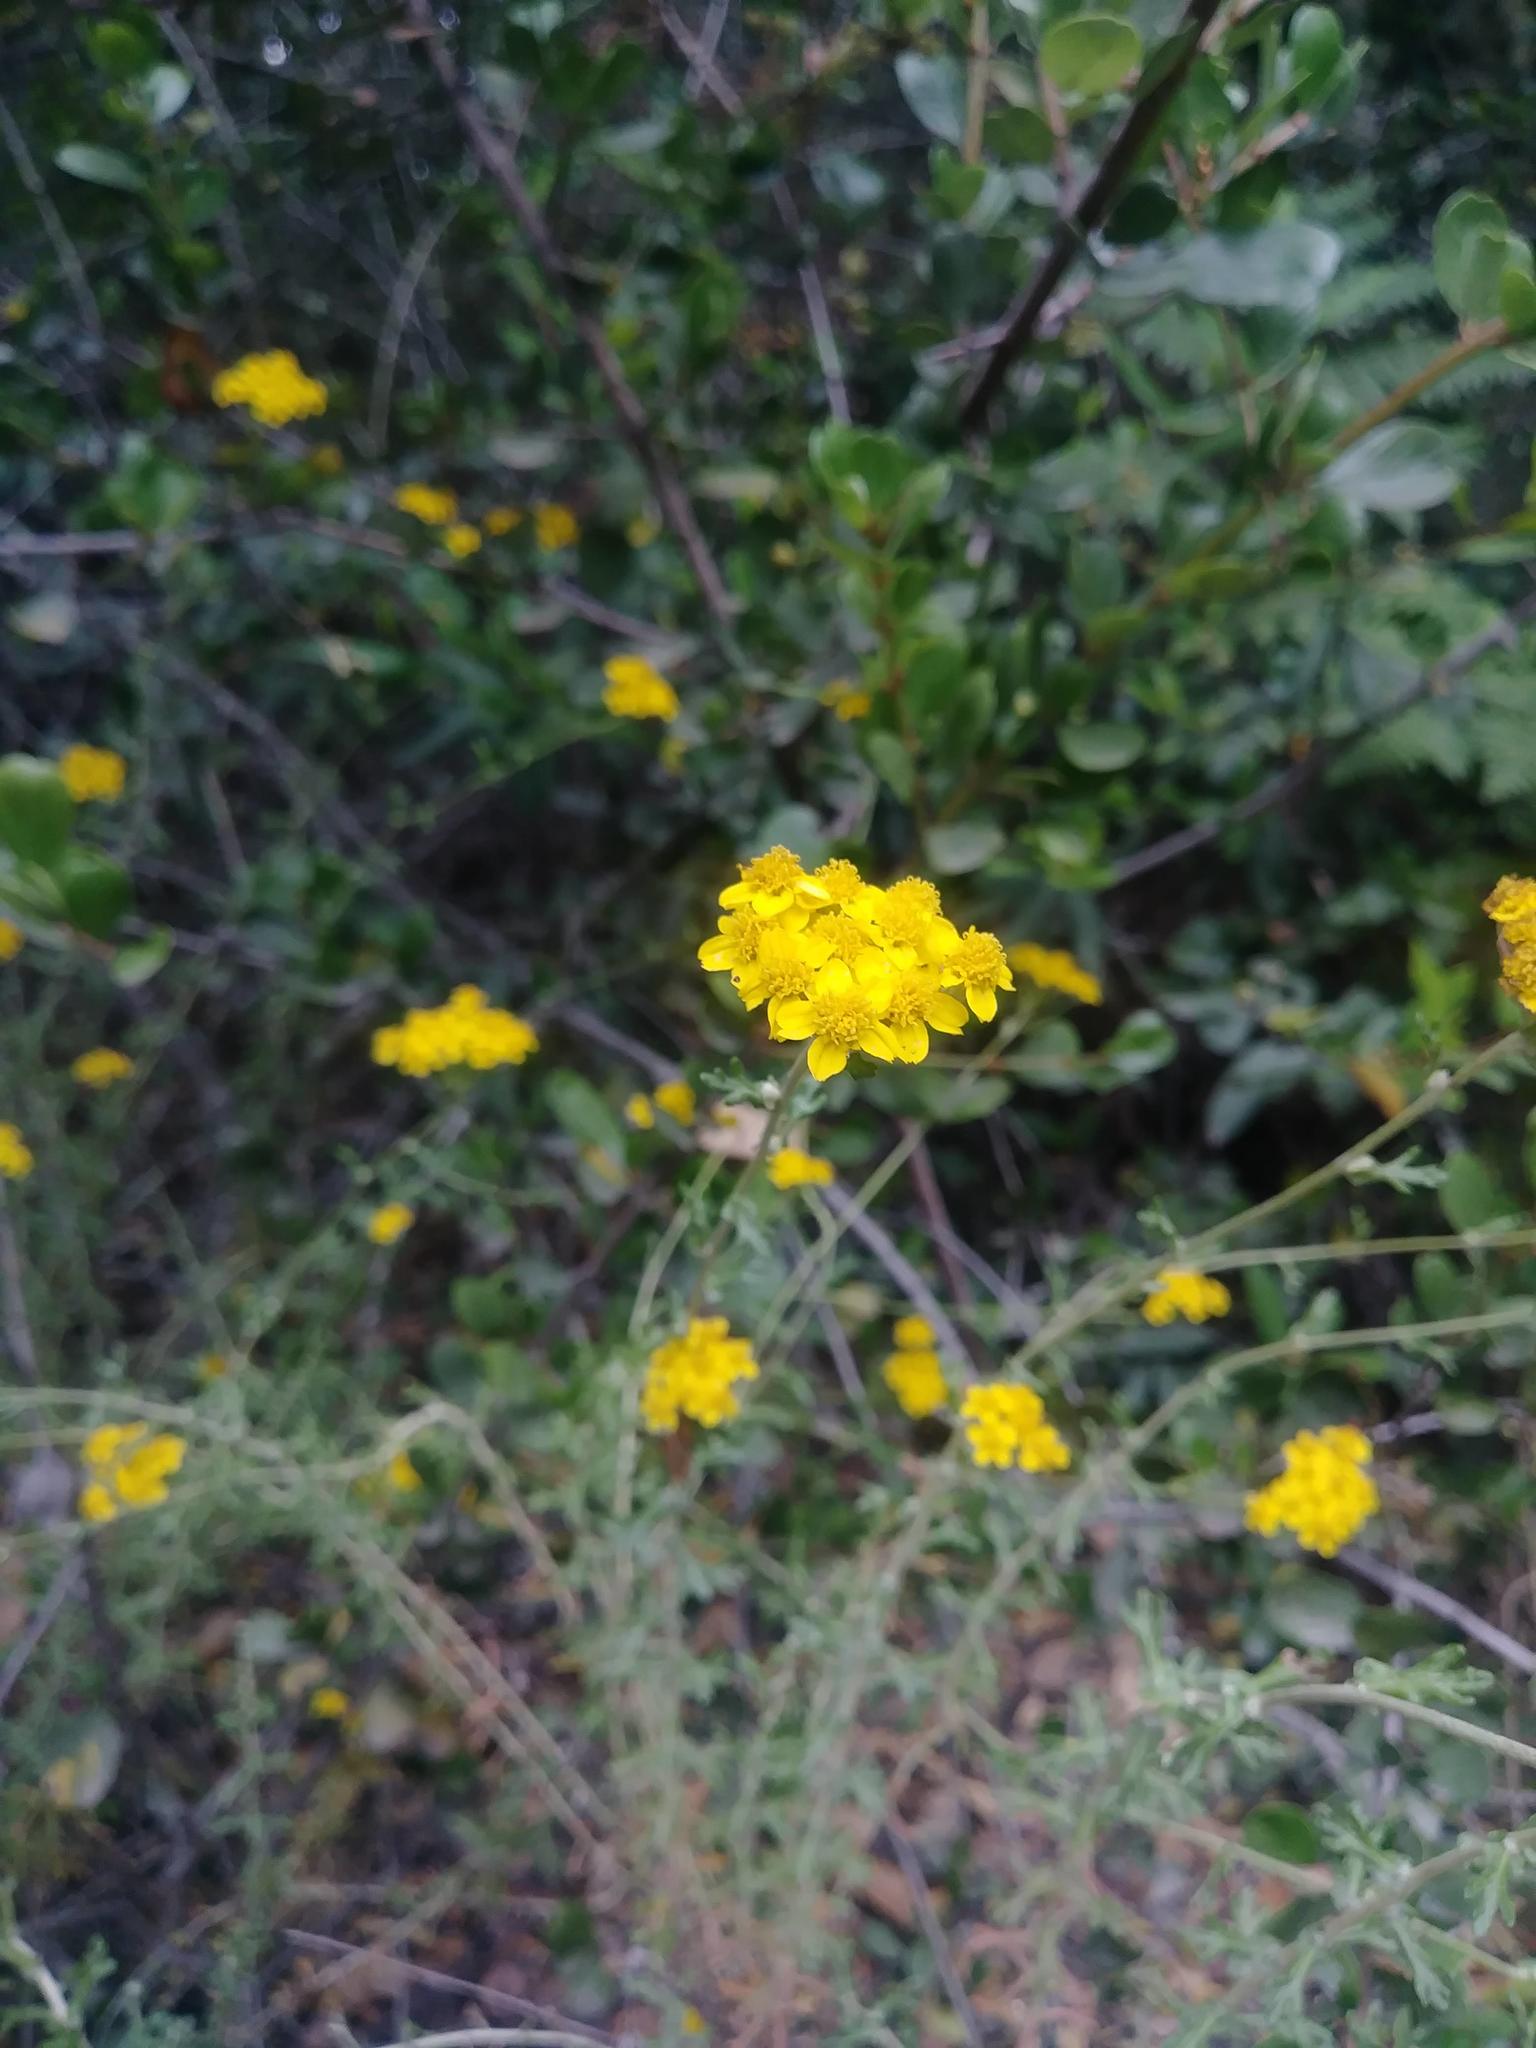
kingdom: Plantae
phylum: Tracheophyta
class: Magnoliopsida
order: Asterales
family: Asteraceae
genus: Eriophyllum
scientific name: Eriophyllum confertiflorum
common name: Golden-yarrow
